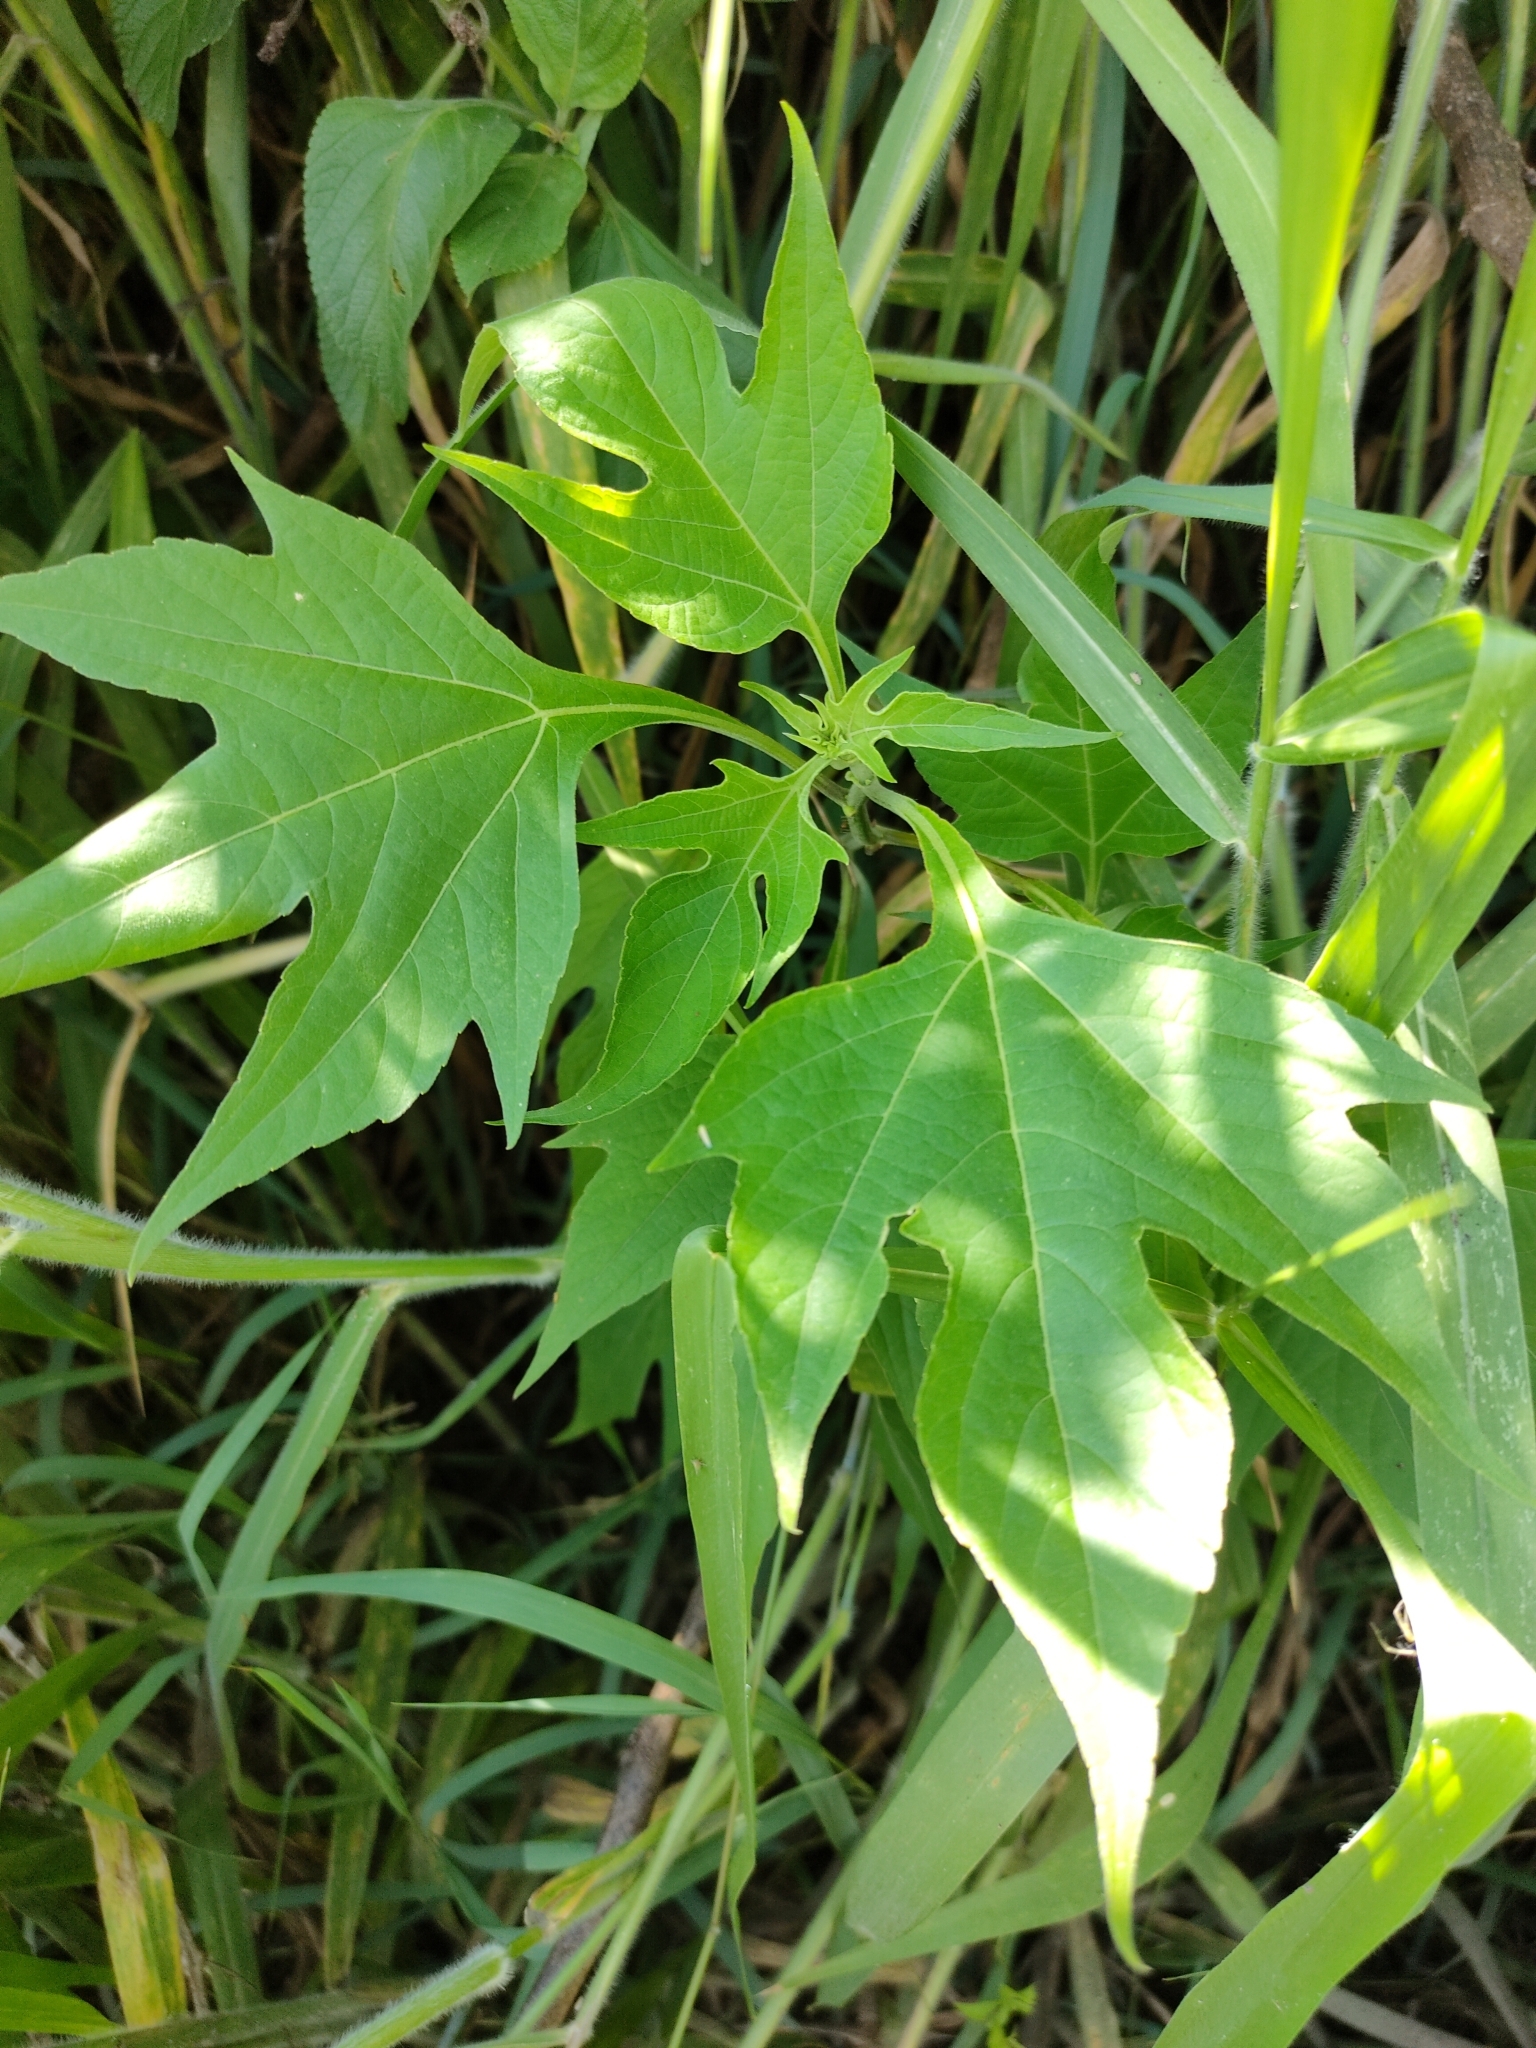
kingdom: Plantae
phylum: Tracheophyta
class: Magnoliopsida
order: Asterales
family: Asteraceae
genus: Tithonia
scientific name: Tithonia diversifolia
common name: Tree marigold
